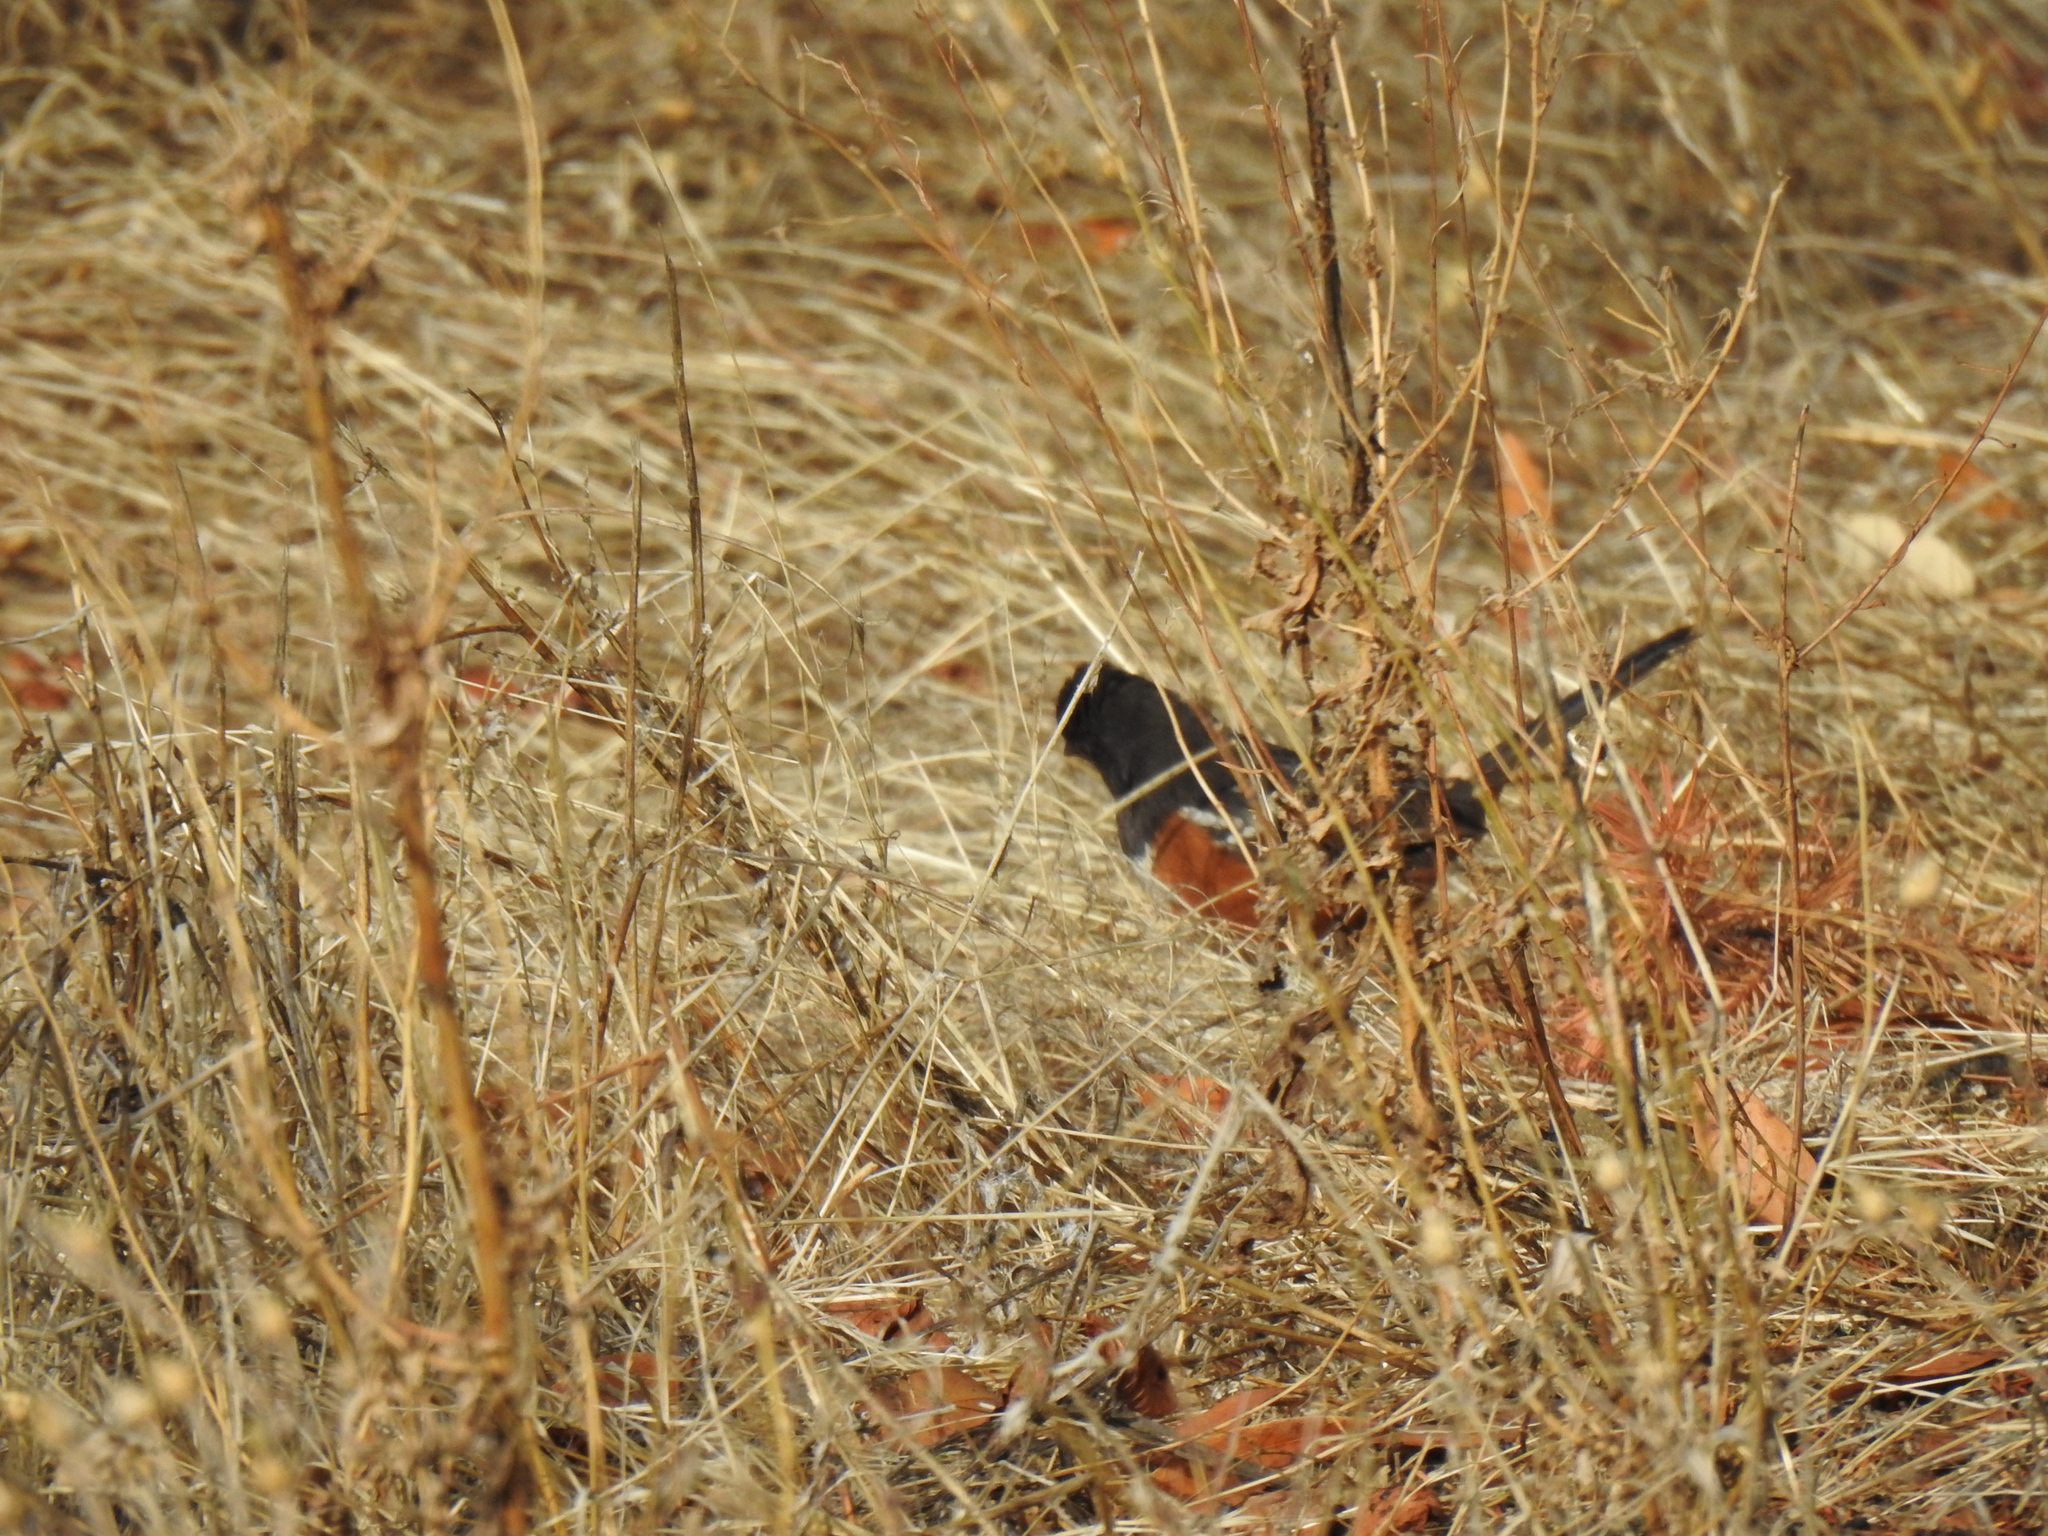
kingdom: Animalia
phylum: Chordata
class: Aves
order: Passeriformes
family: Passerellidae
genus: Pipilo
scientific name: Pipilo maculatus
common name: Spotted towhee
